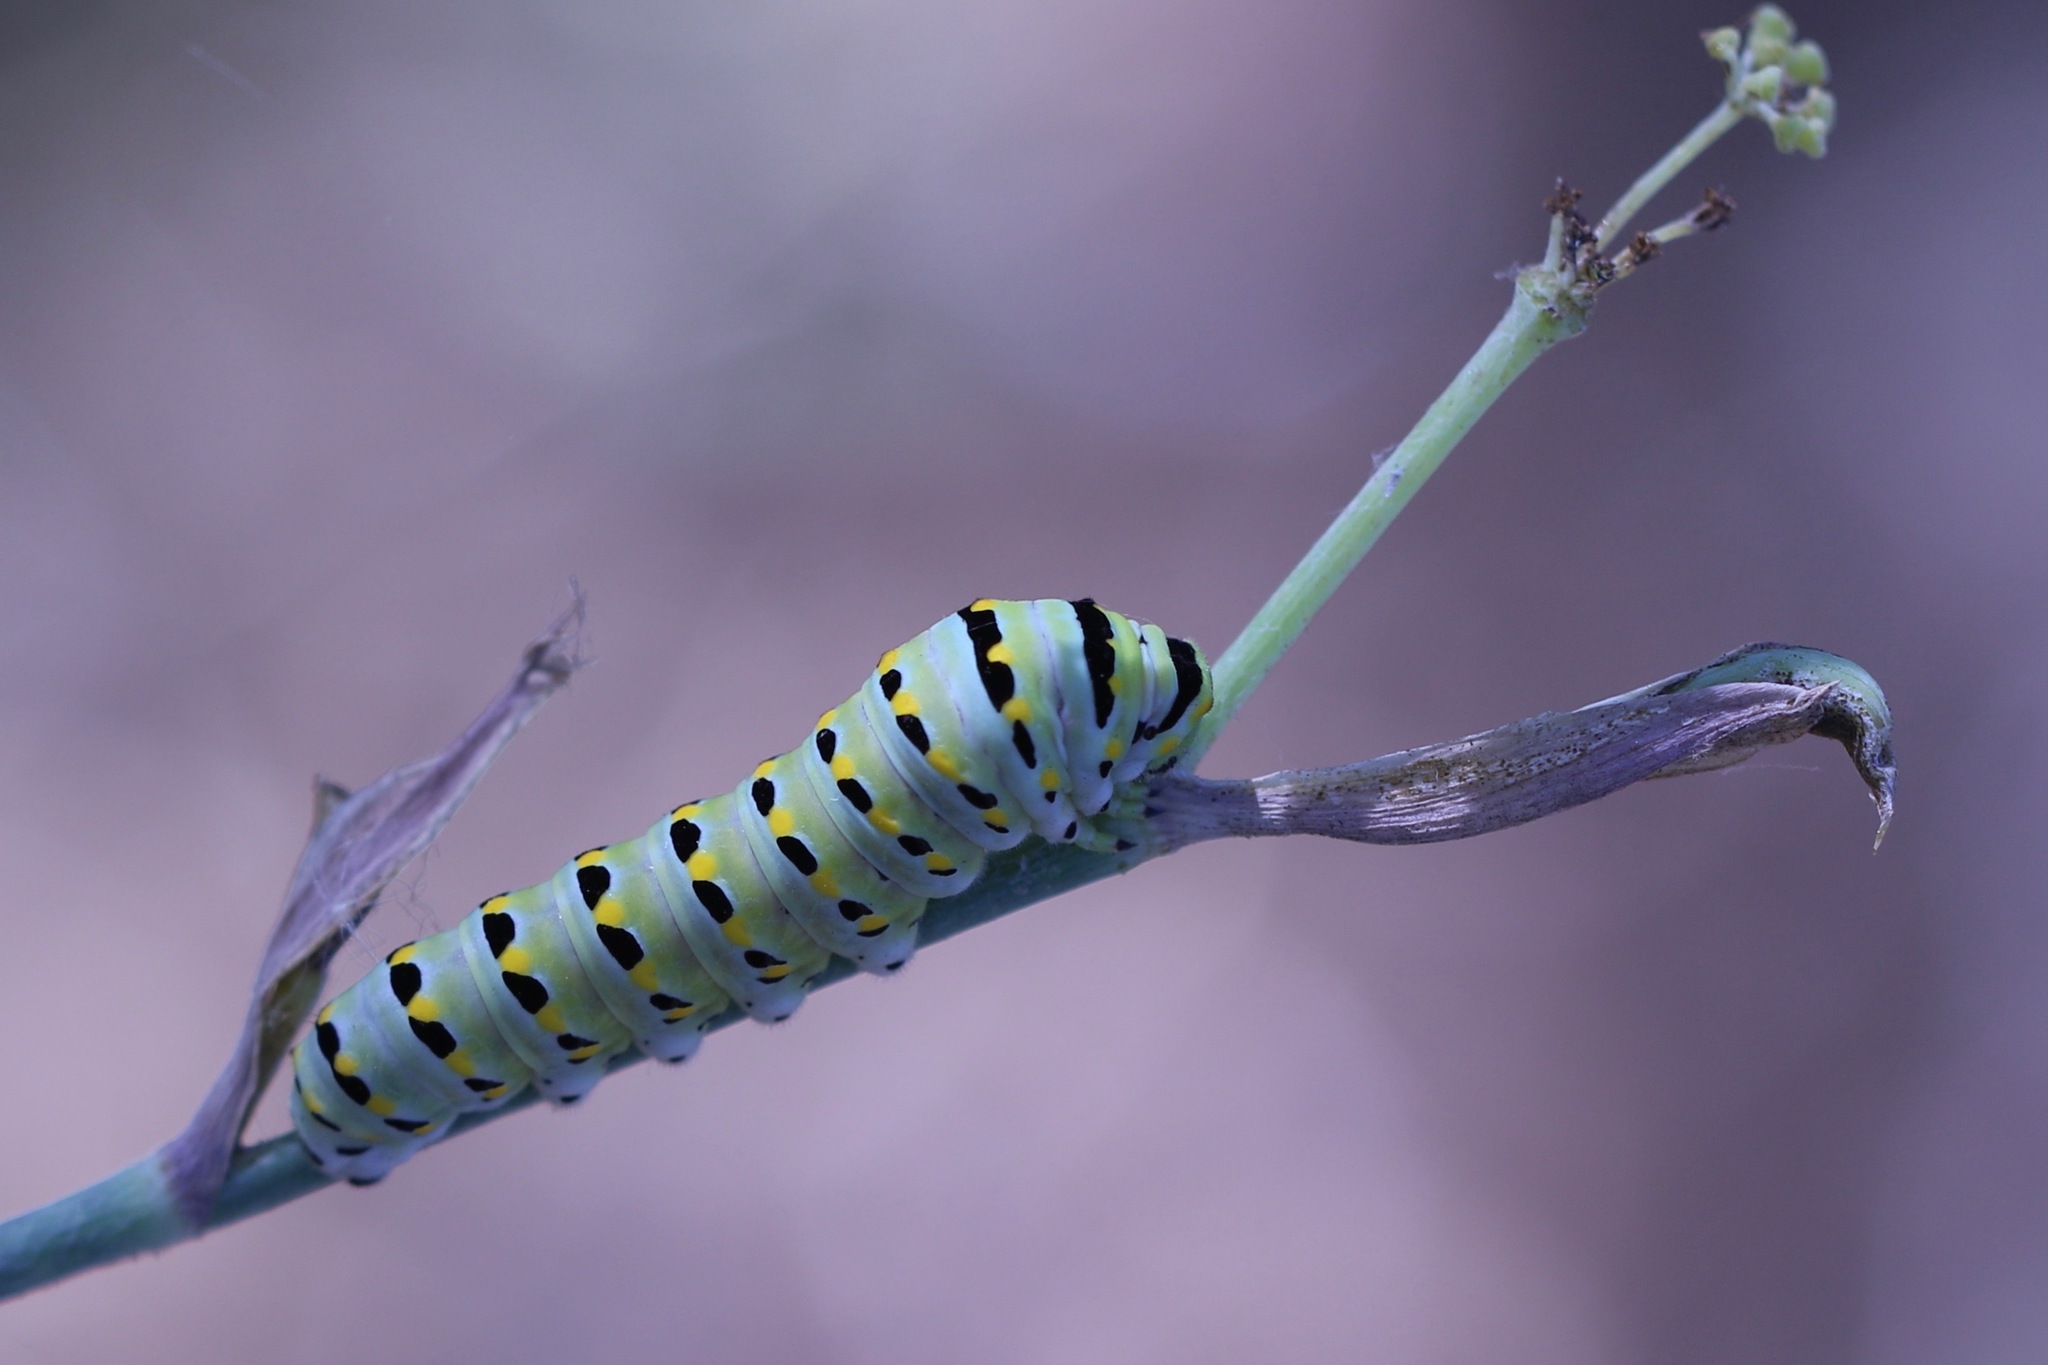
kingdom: Animalia
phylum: Arthropoda
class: Insecta
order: Lepidoptera
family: Papilionidae
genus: Papilio
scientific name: Papilio zelicaon
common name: Anise swallowtail
